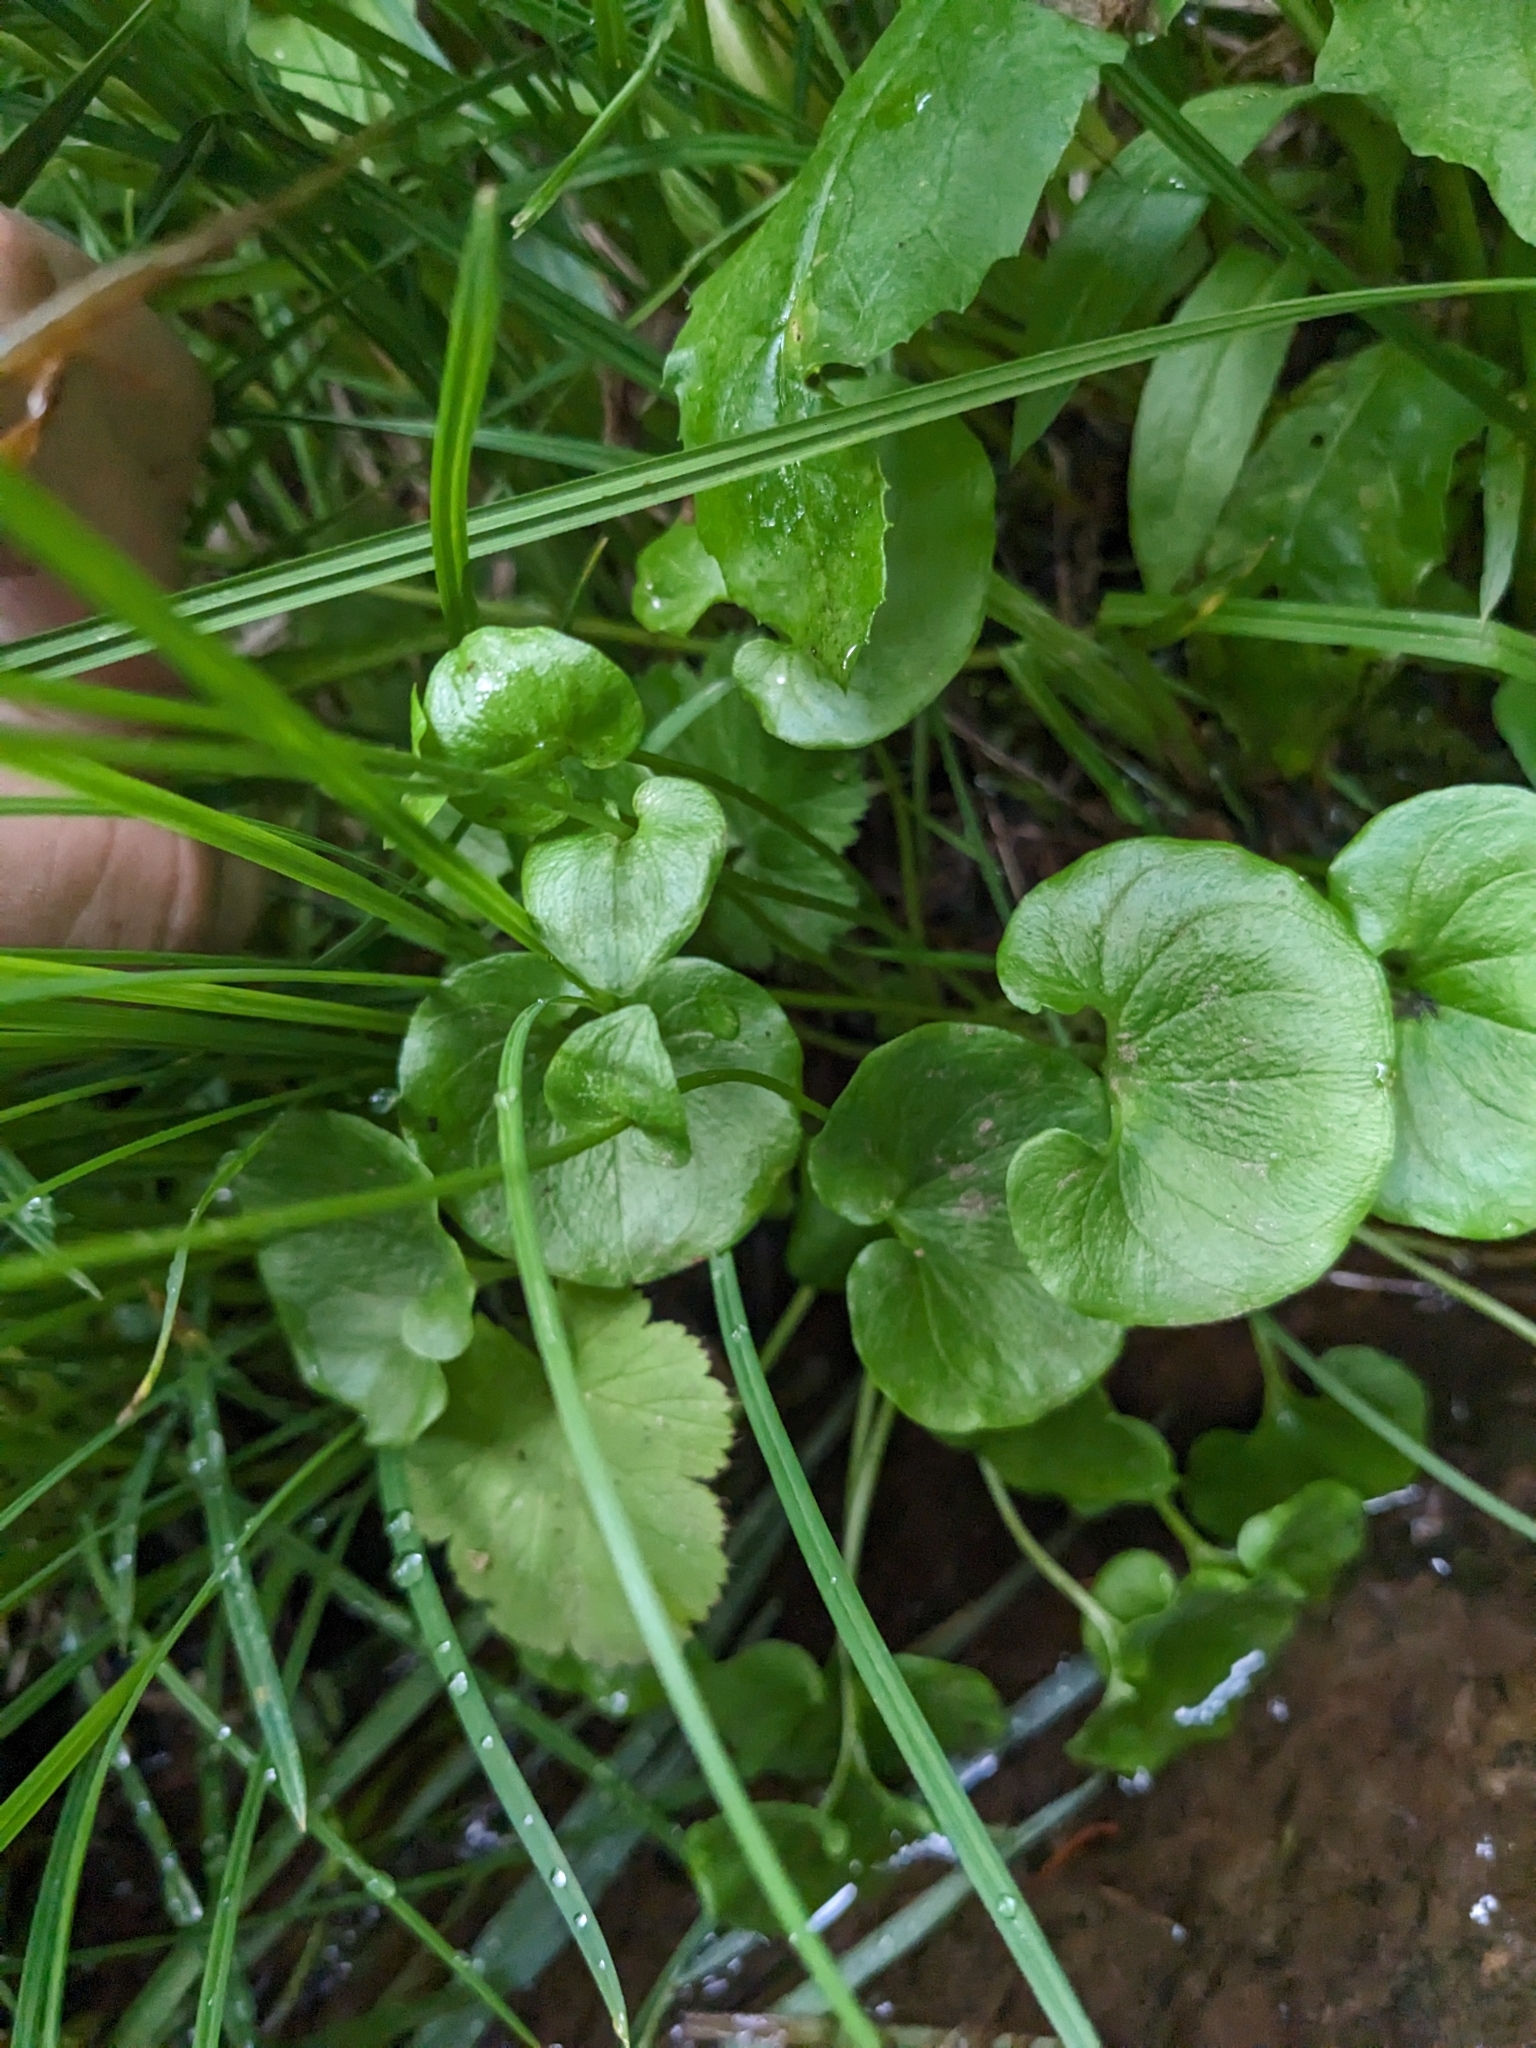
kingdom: Plantae
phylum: Tracheophyta
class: Magnoliopsida
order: Celastrales
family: Parnassiaceae
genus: Parnassia
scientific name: Parnassia fimbriata
